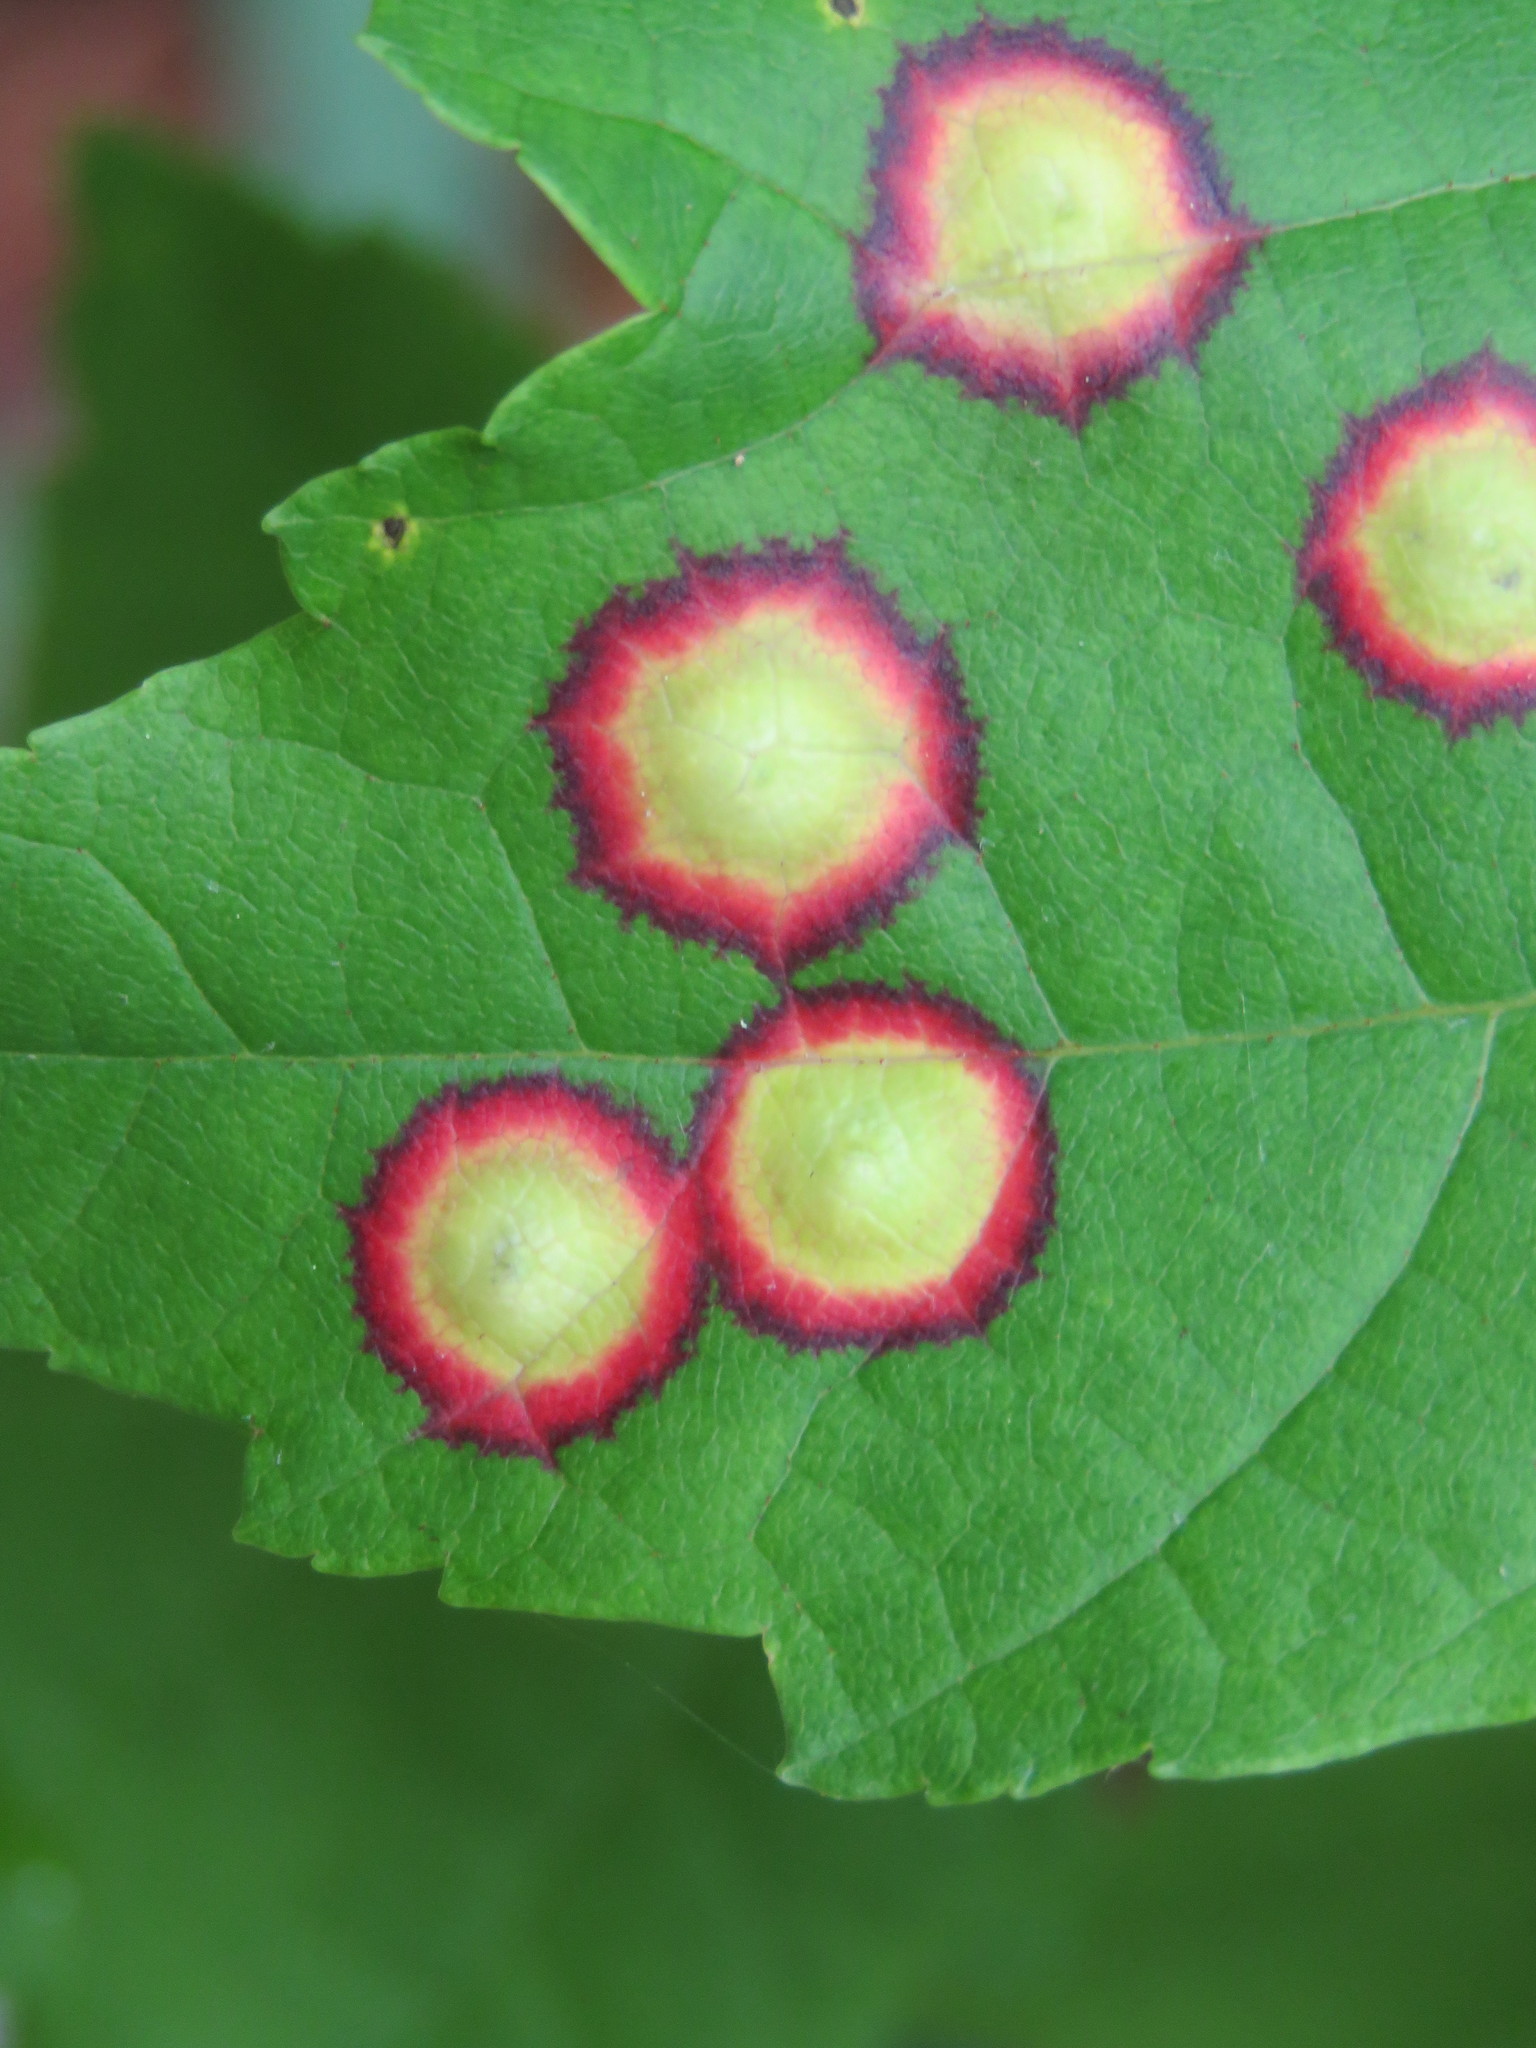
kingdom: Animalia
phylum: Arthropoda
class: Insecta
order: Diptera
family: Cecidomyiidae
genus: Acericecis
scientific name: Acericecis ocellaris
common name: Ocellate gall midge
